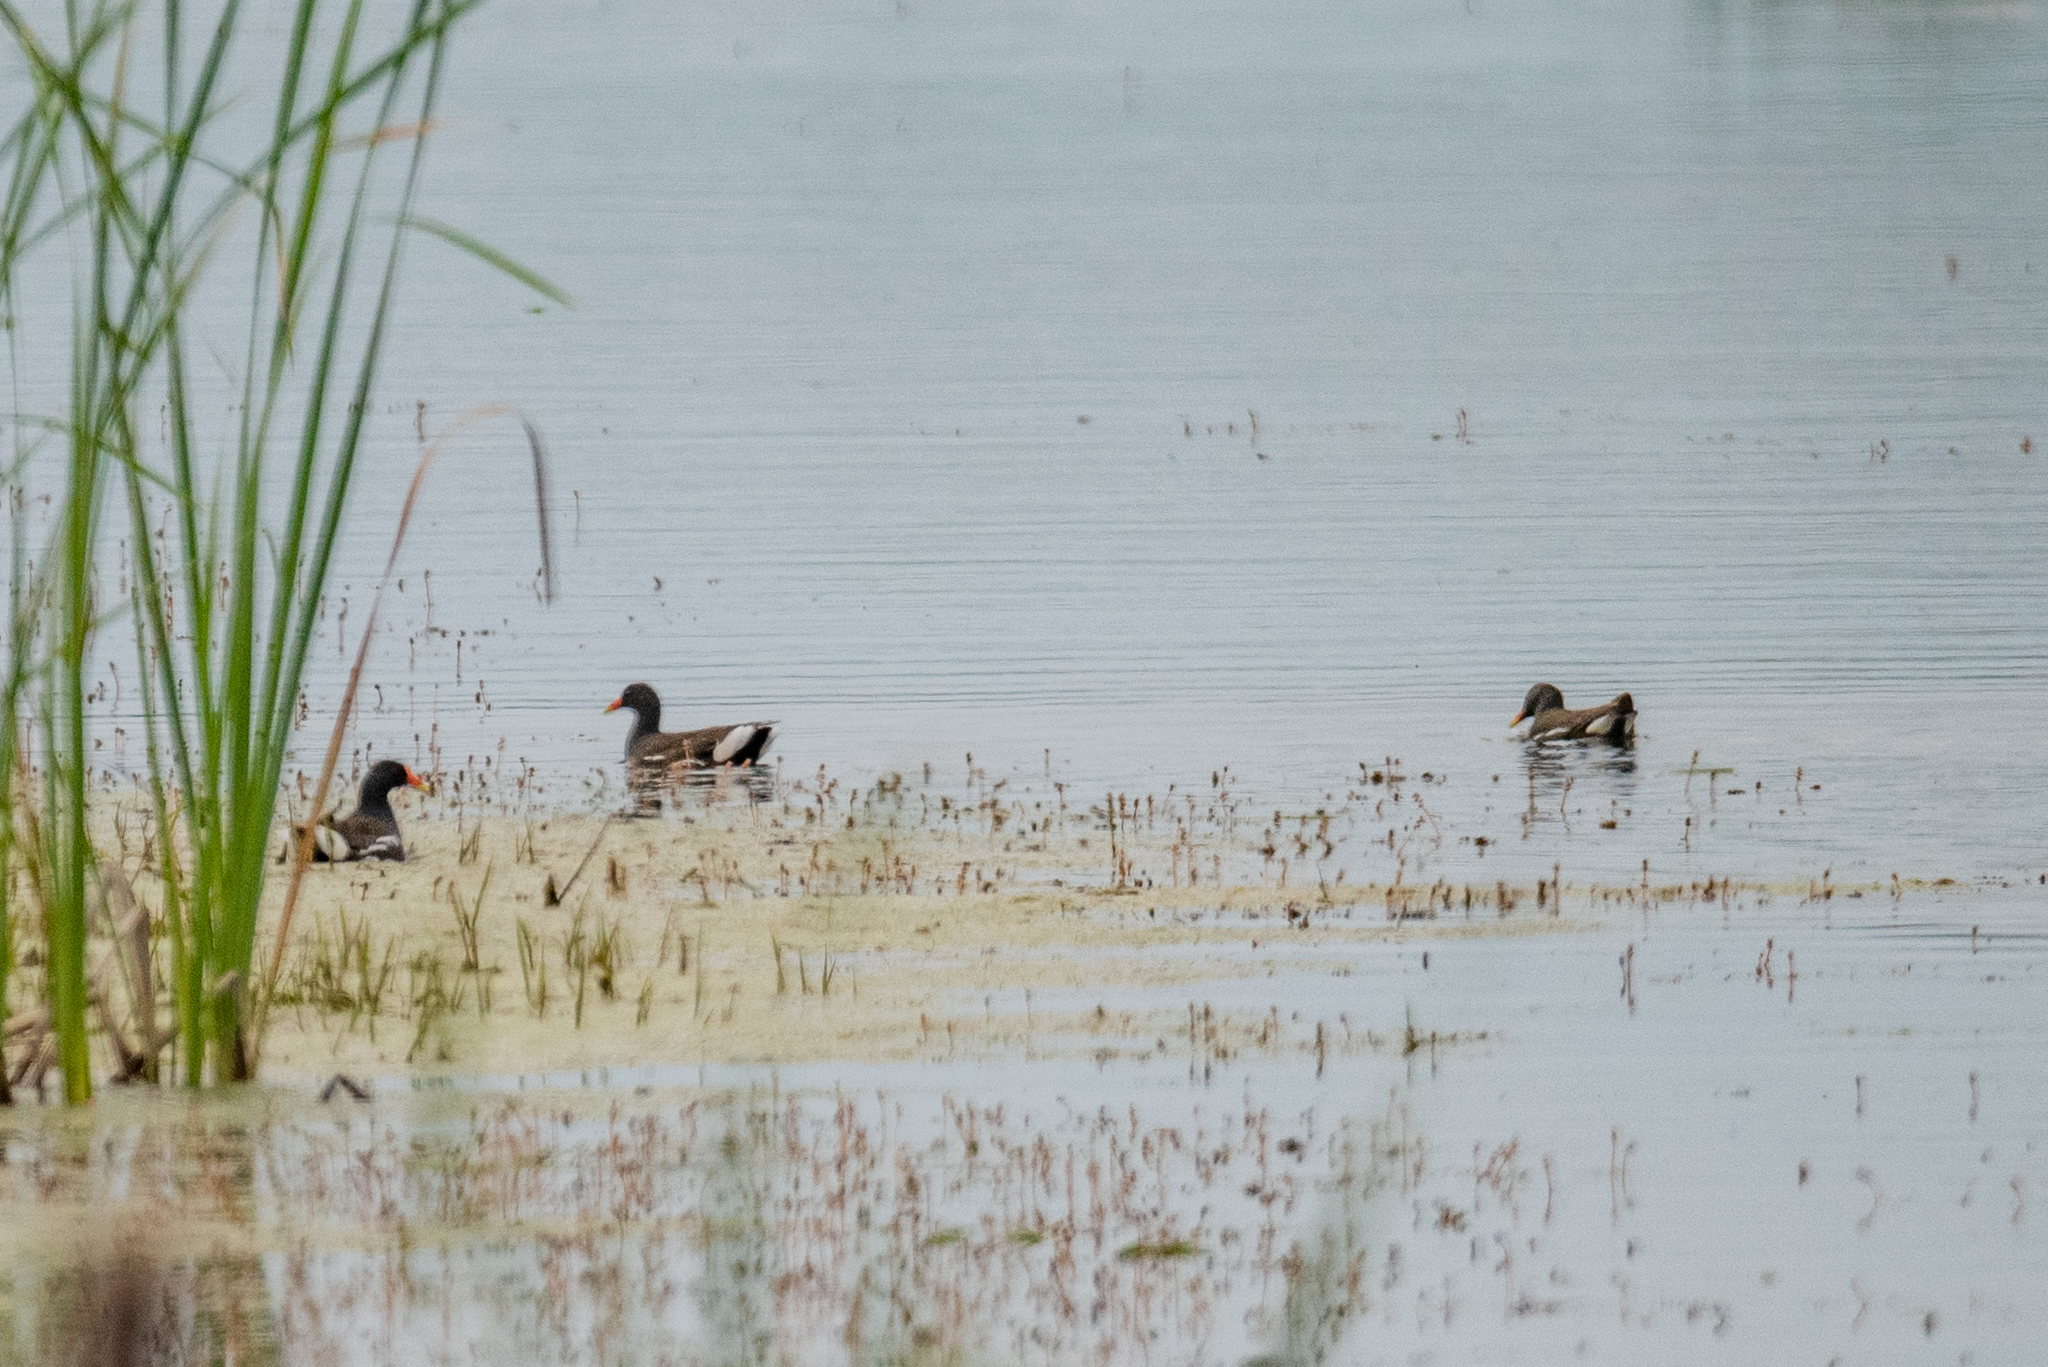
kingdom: Animalia
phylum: Chordata
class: Aves
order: Gruiformes
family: Rallidae
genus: Gallinula
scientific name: Gallinula chloropus
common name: Common moorhen
